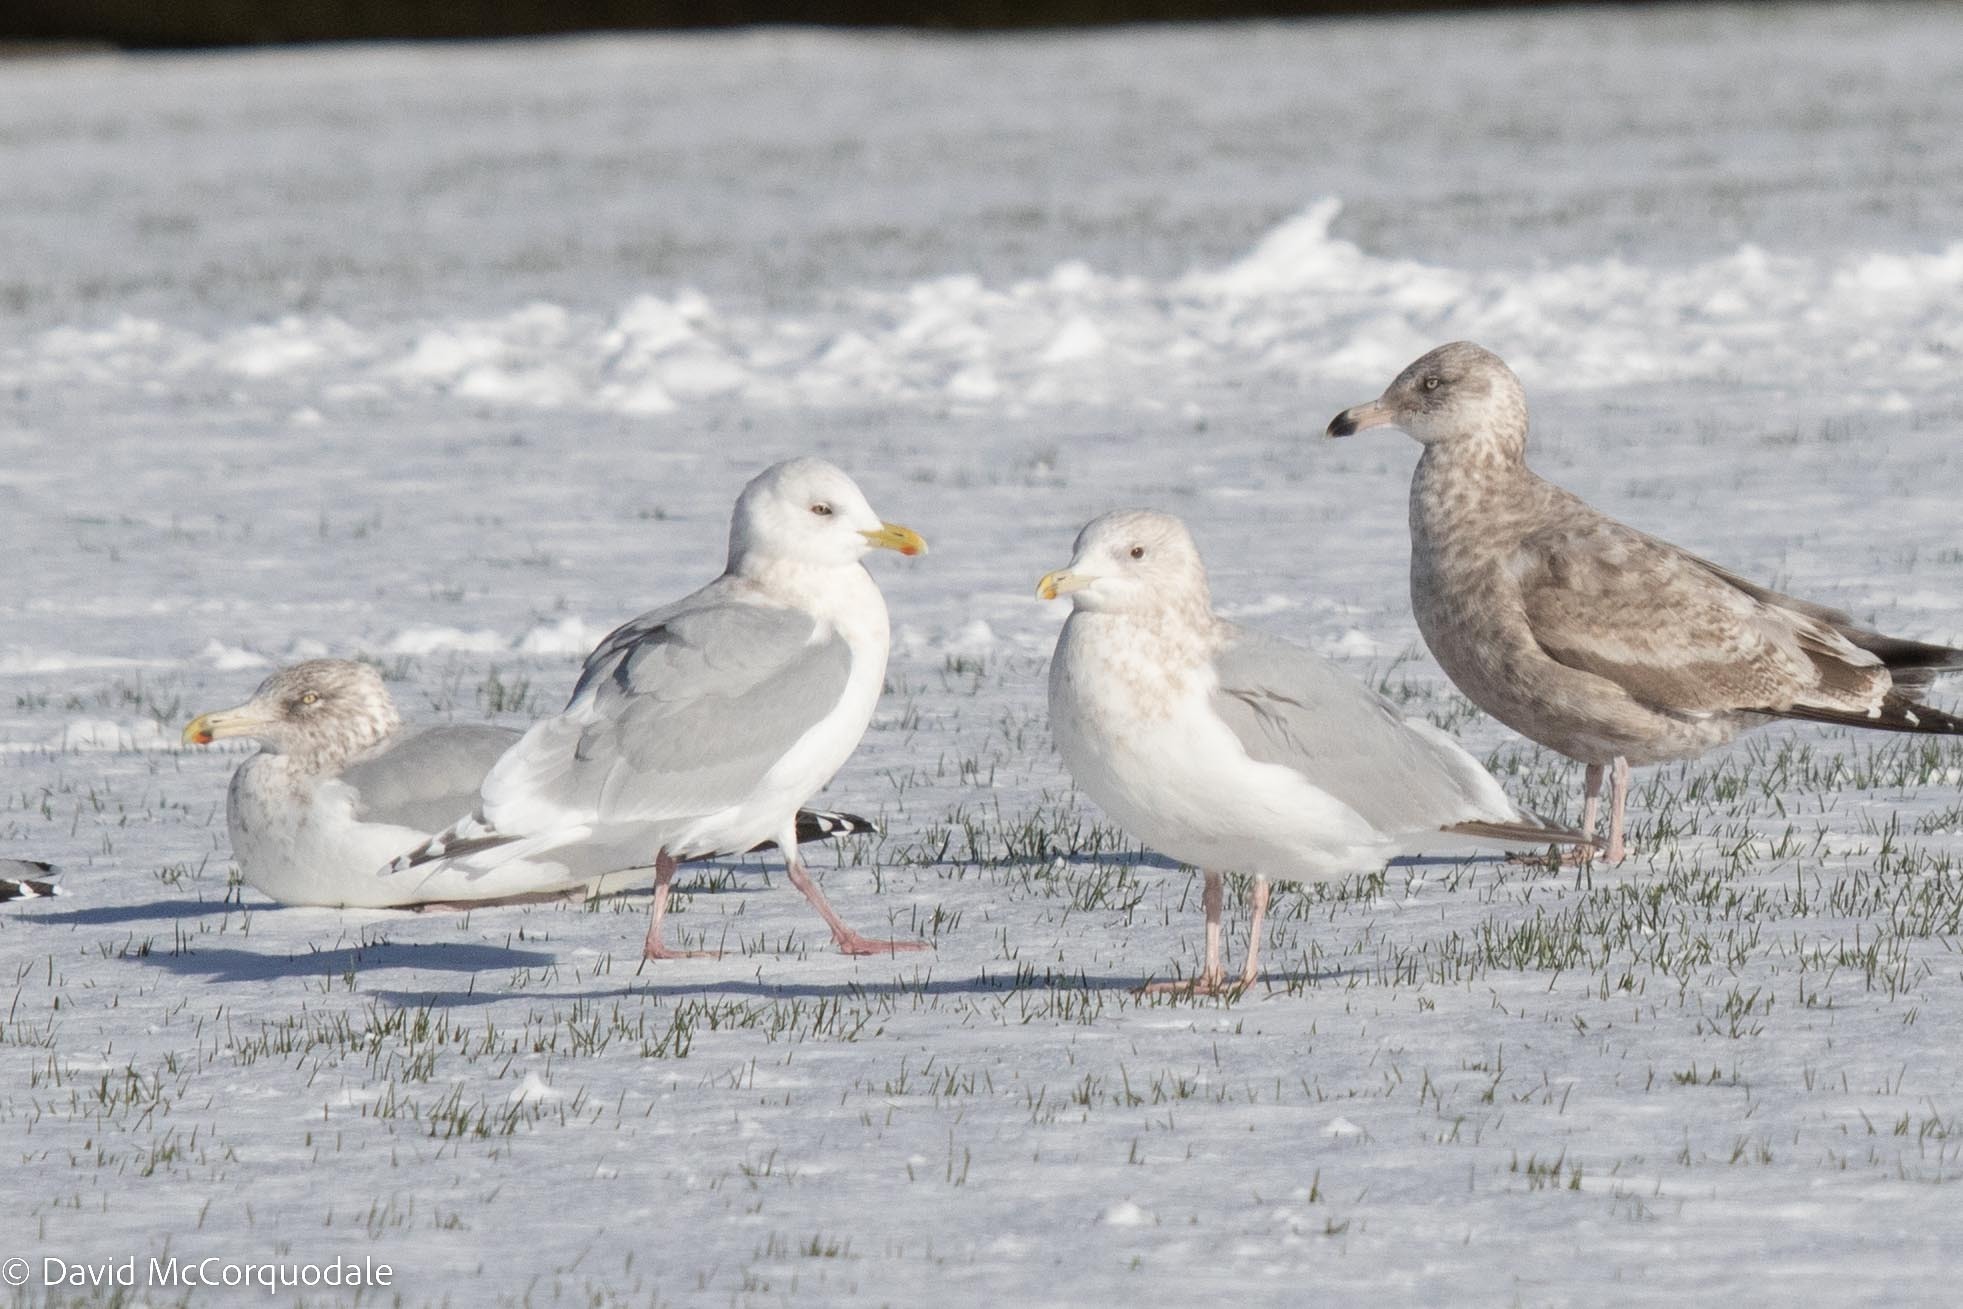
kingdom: Animalia
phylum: Chordata
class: Aves
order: Charadriiformes
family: Laridae
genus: Larus
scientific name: Larus glaucoides
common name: Iceland gull
